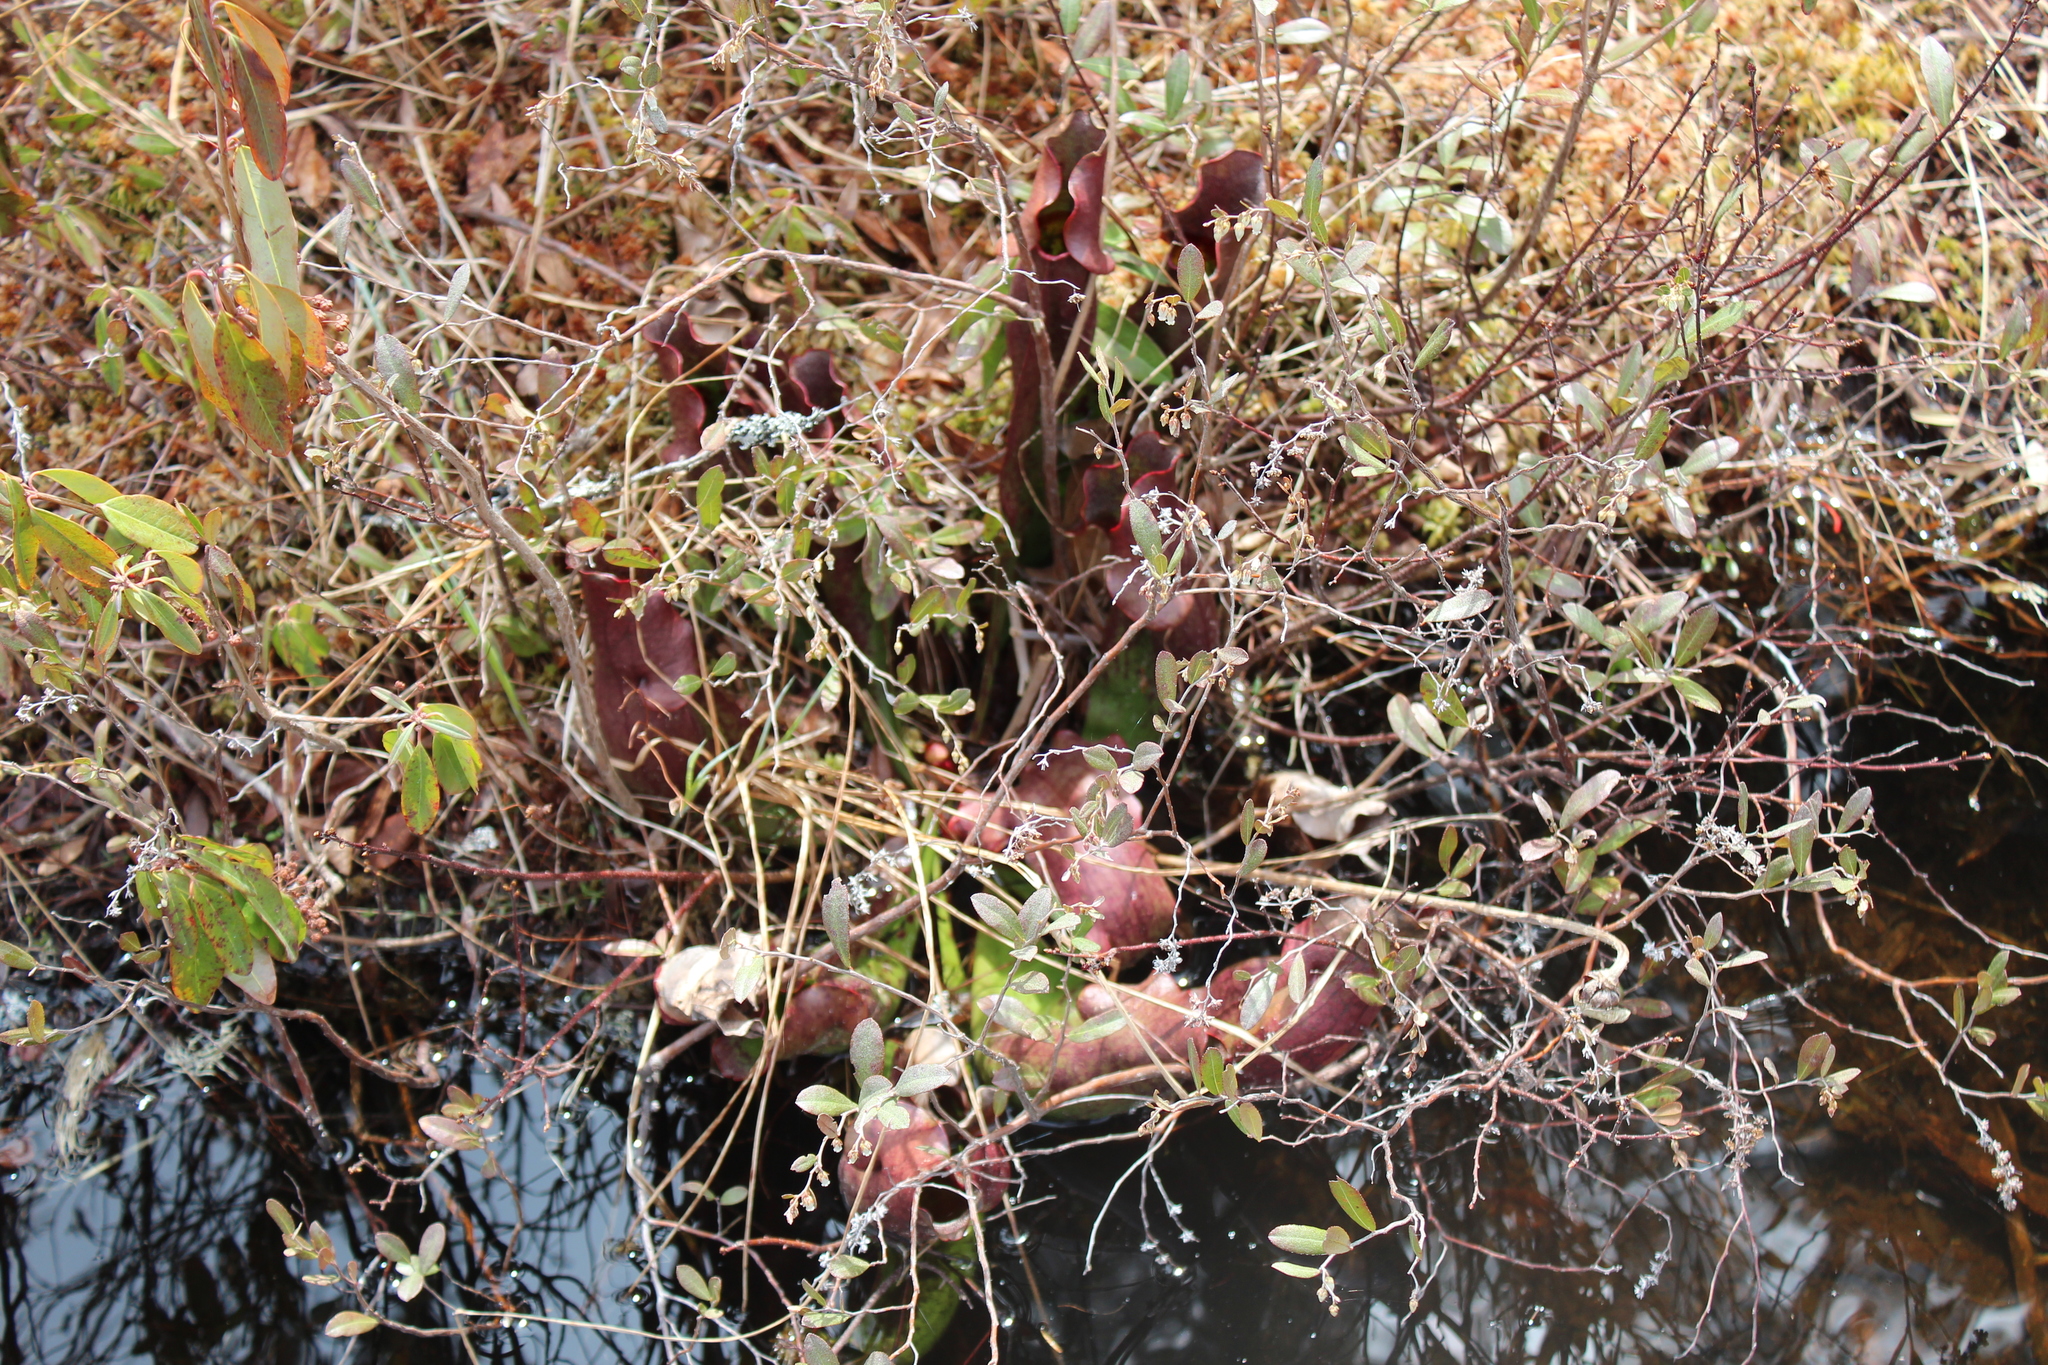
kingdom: Plantae
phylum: Tracheophyta
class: Magnoliopsida
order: Ericales
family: Sarraceniaceae
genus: Sarracenia
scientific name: Sarracenia purpurea
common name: Pitcherplant
